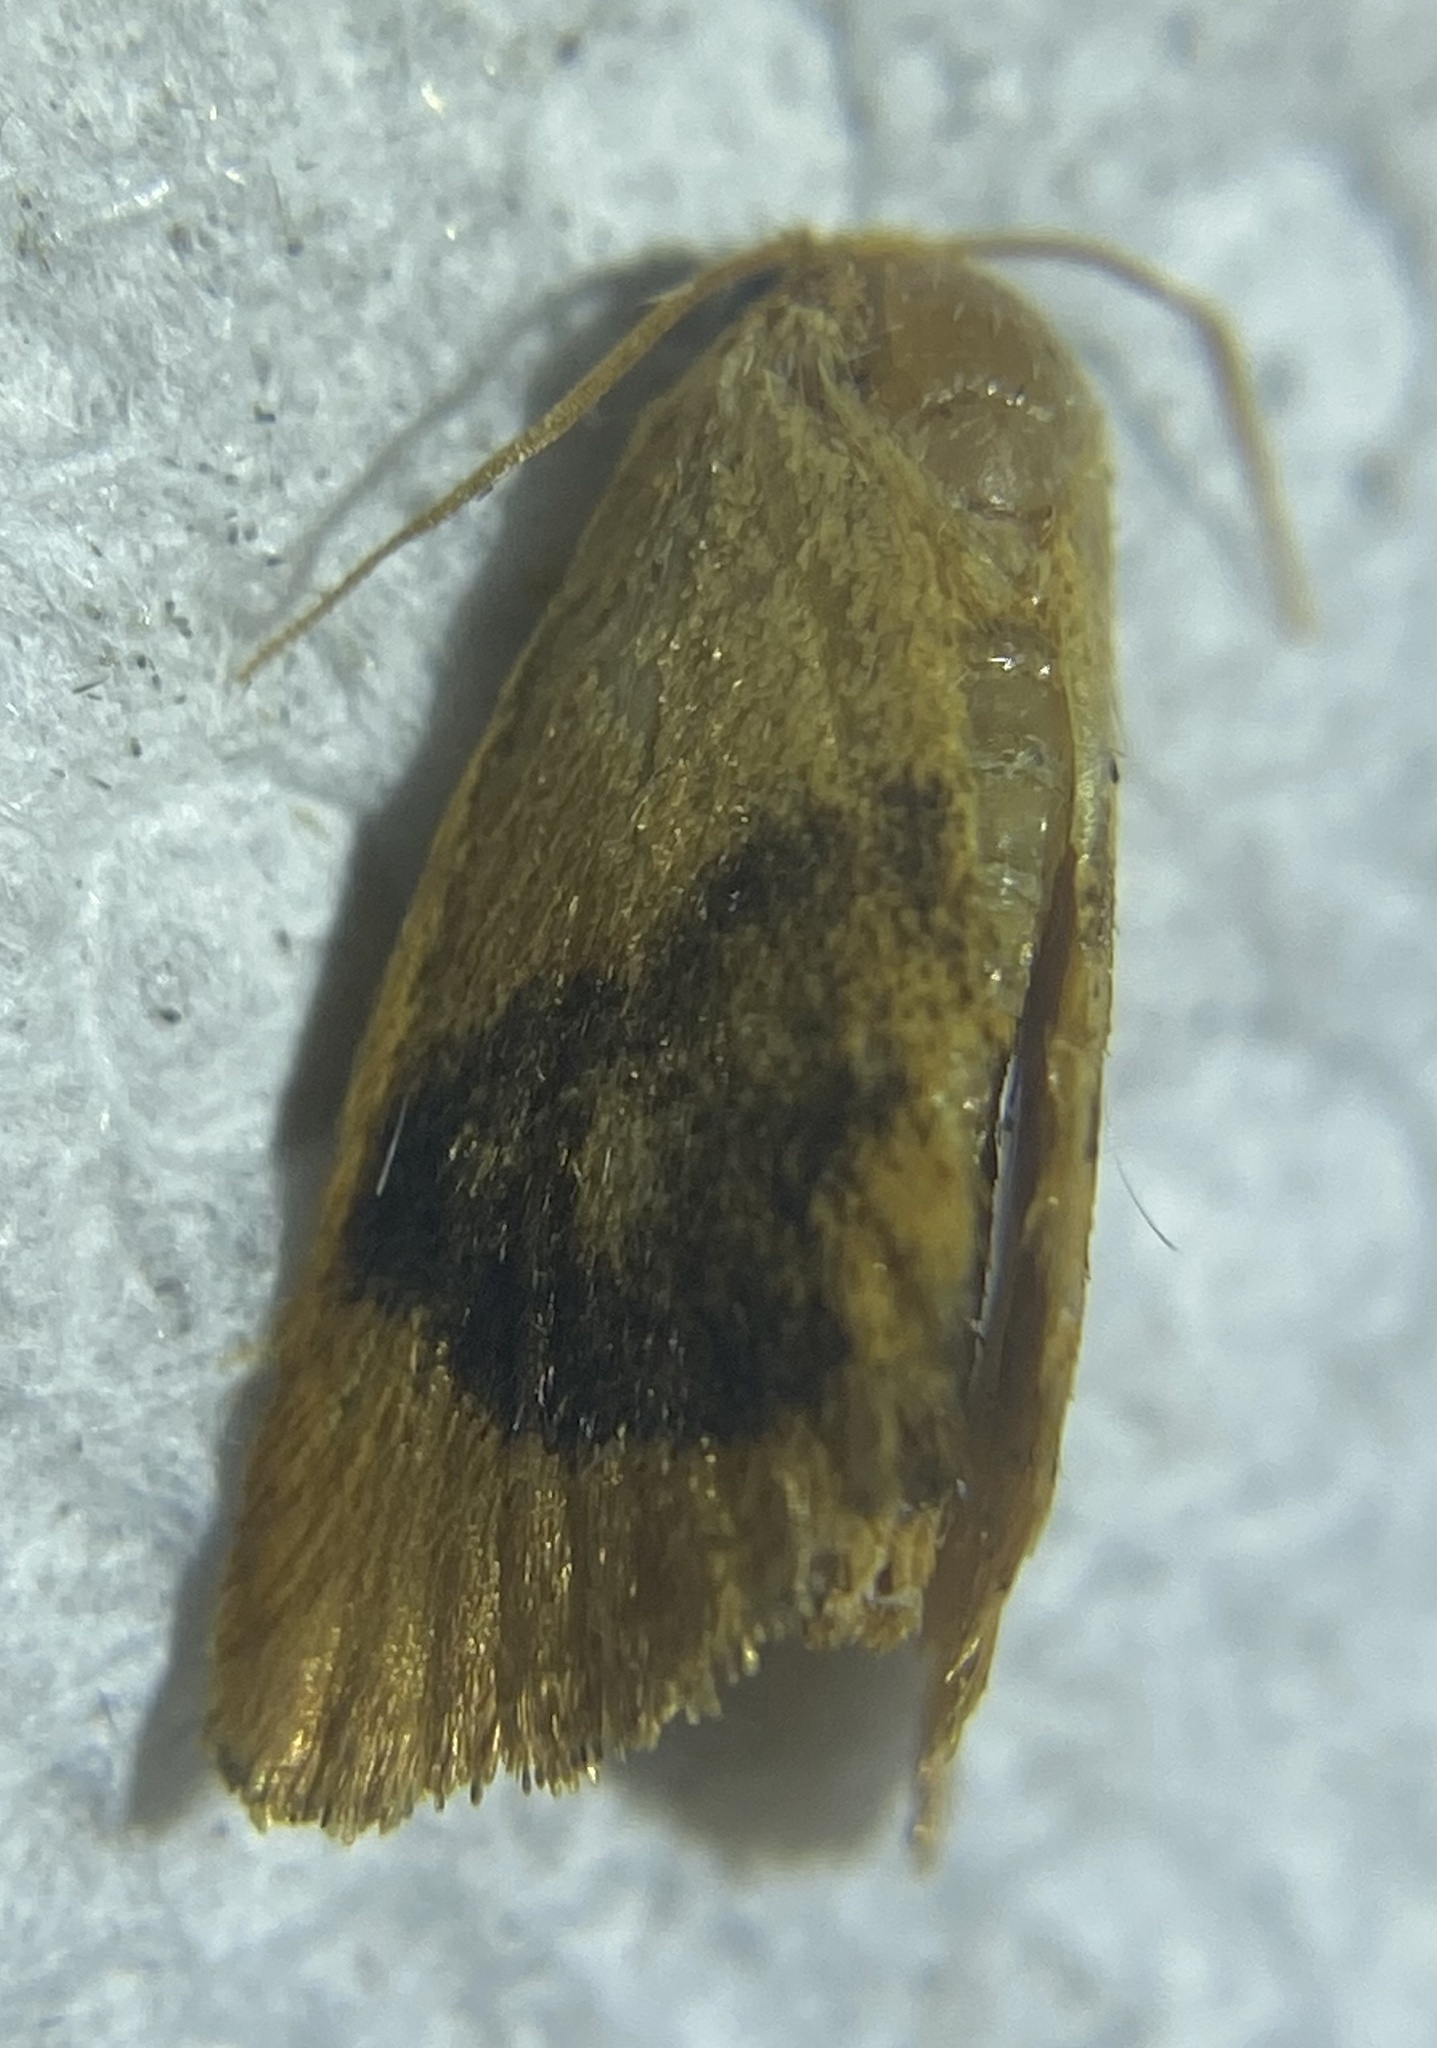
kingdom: Animalia
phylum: Arthropoda
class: Insecta
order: Lepidoptera
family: Limacodidae
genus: Tortricidia
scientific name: Tortricidia flexuosa
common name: Abbreviated button slug moth
